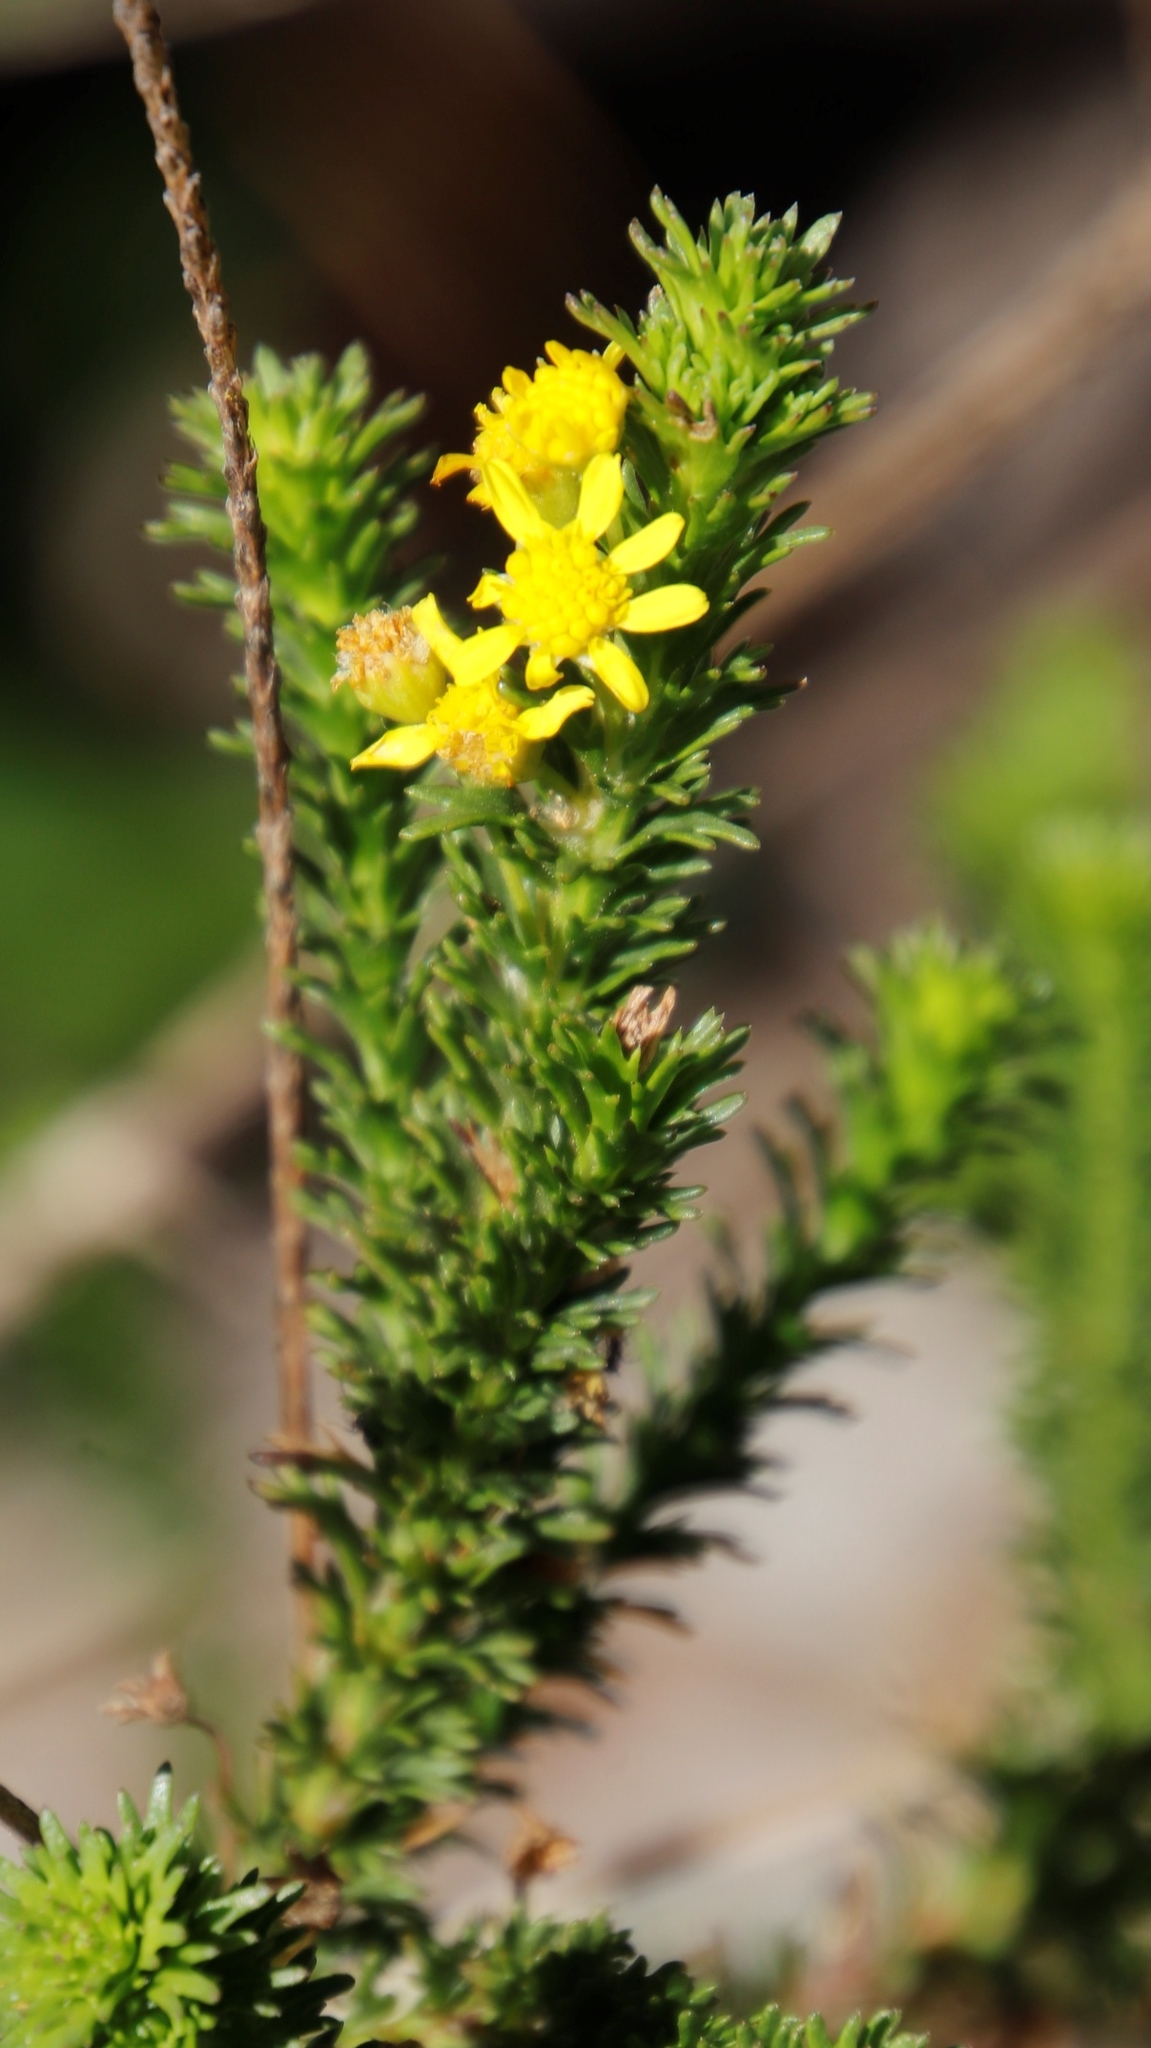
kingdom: Plantae
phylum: Tracheophyta
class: Magnoliopsida
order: Asterales
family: Asteraceae
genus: Euryops
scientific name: Euryops virgineus
